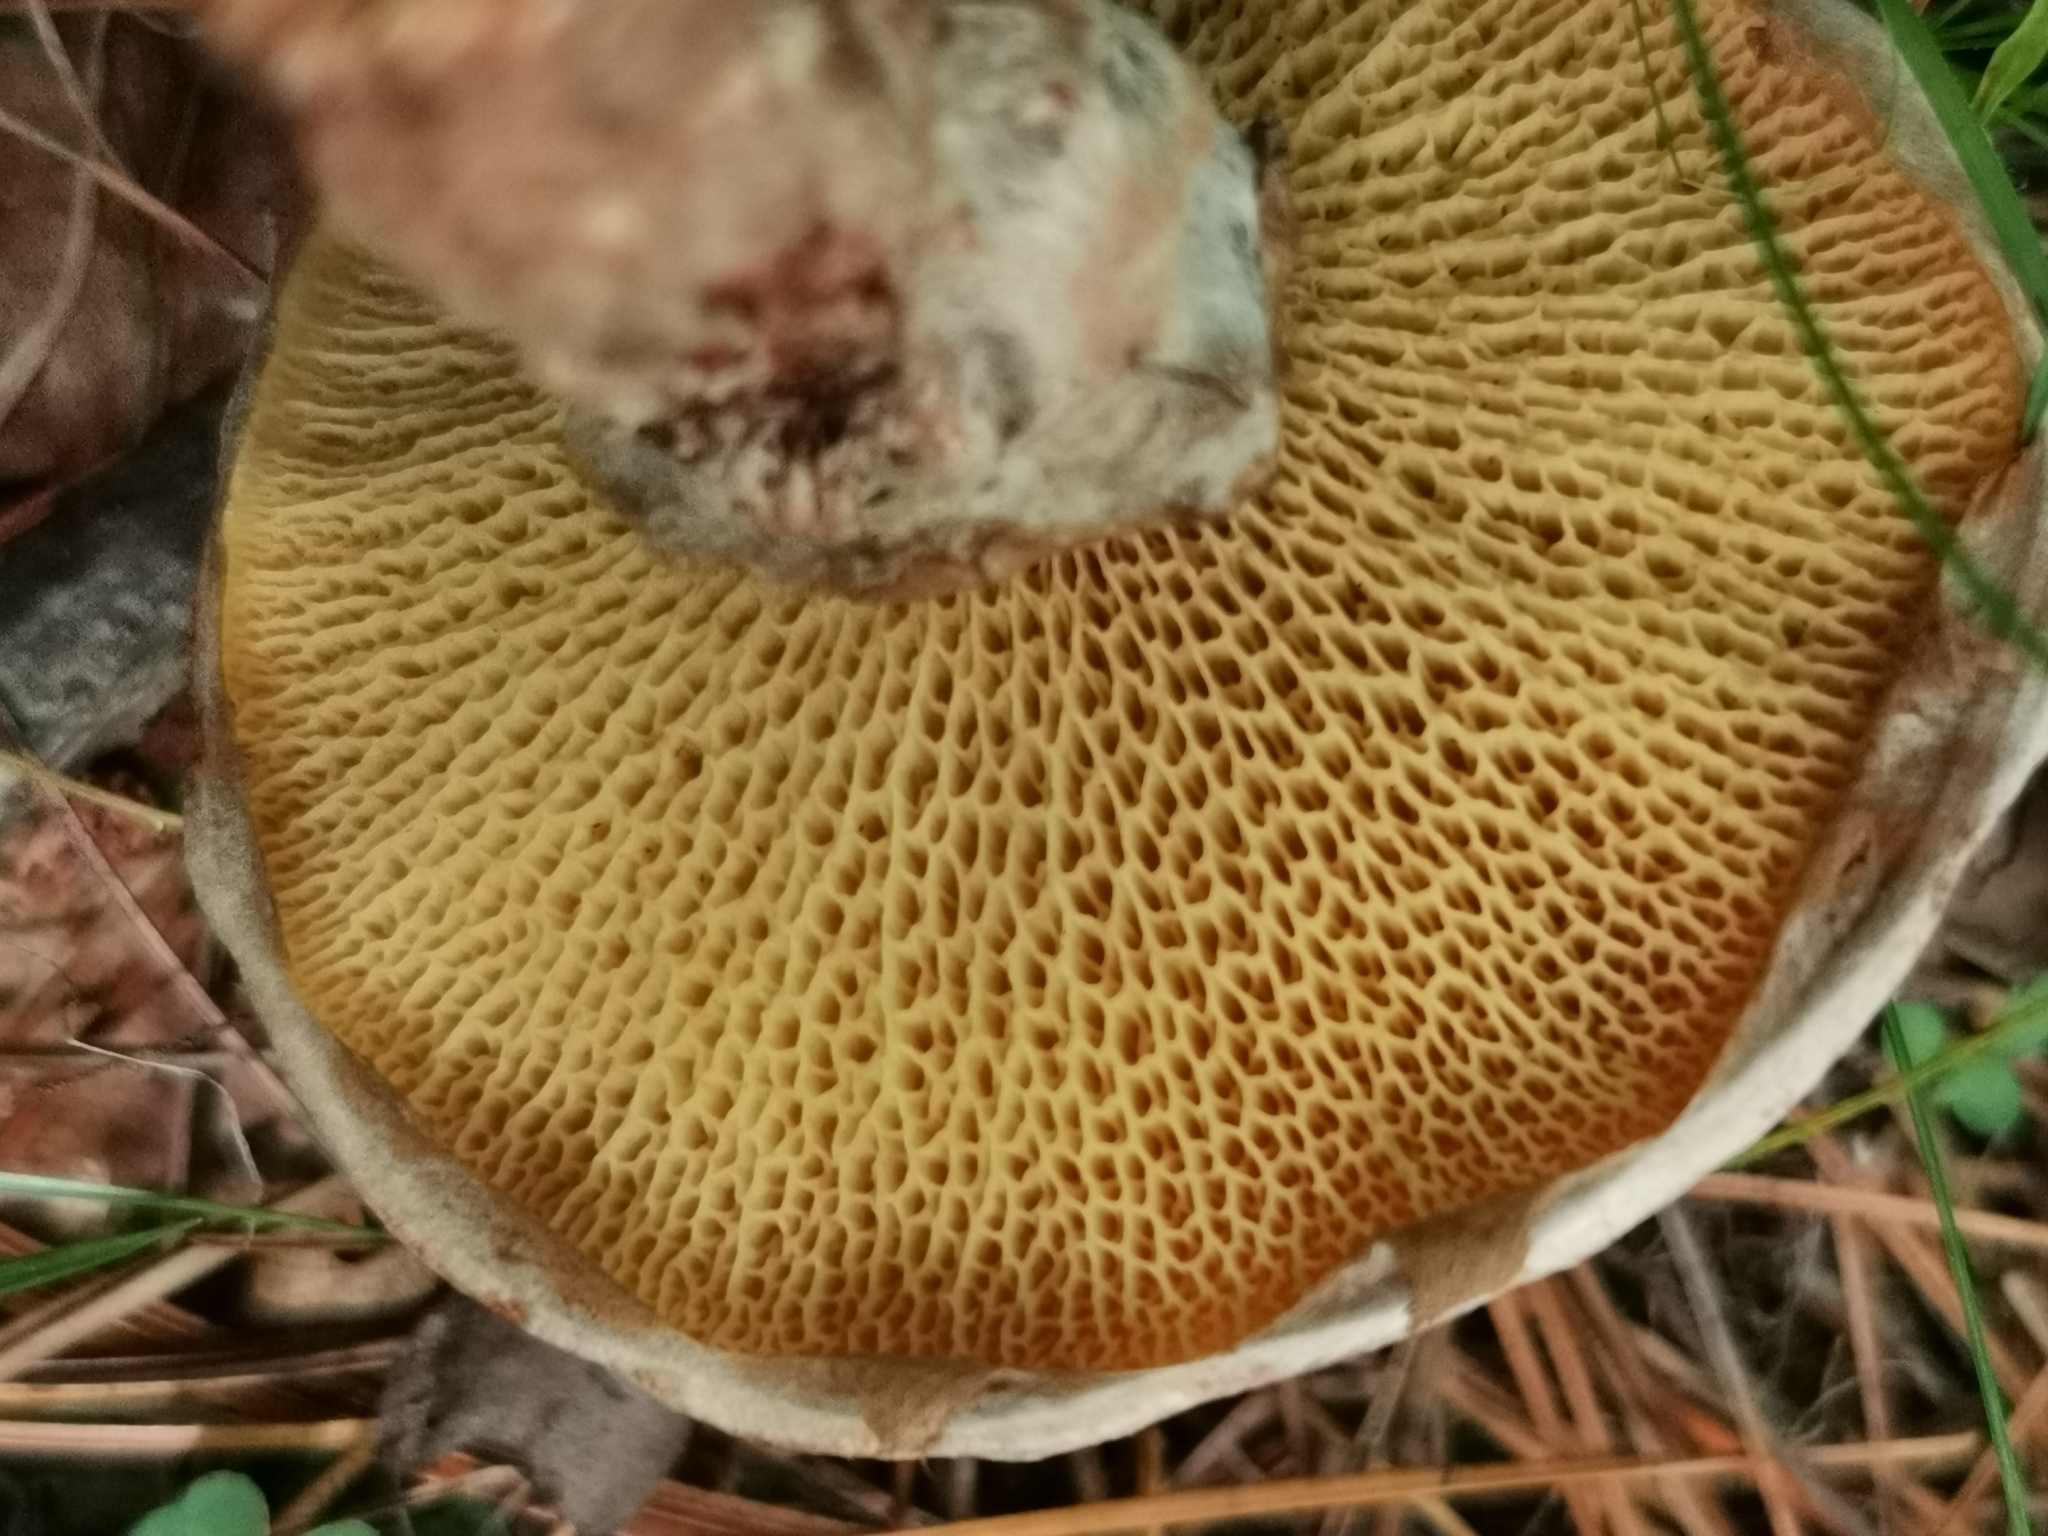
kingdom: Fungi
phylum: Basidiomycota
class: Agaricomycetes
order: Boletales
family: Suillaceae
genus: Suillus
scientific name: Suillus spraguei
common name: Painted suillus
